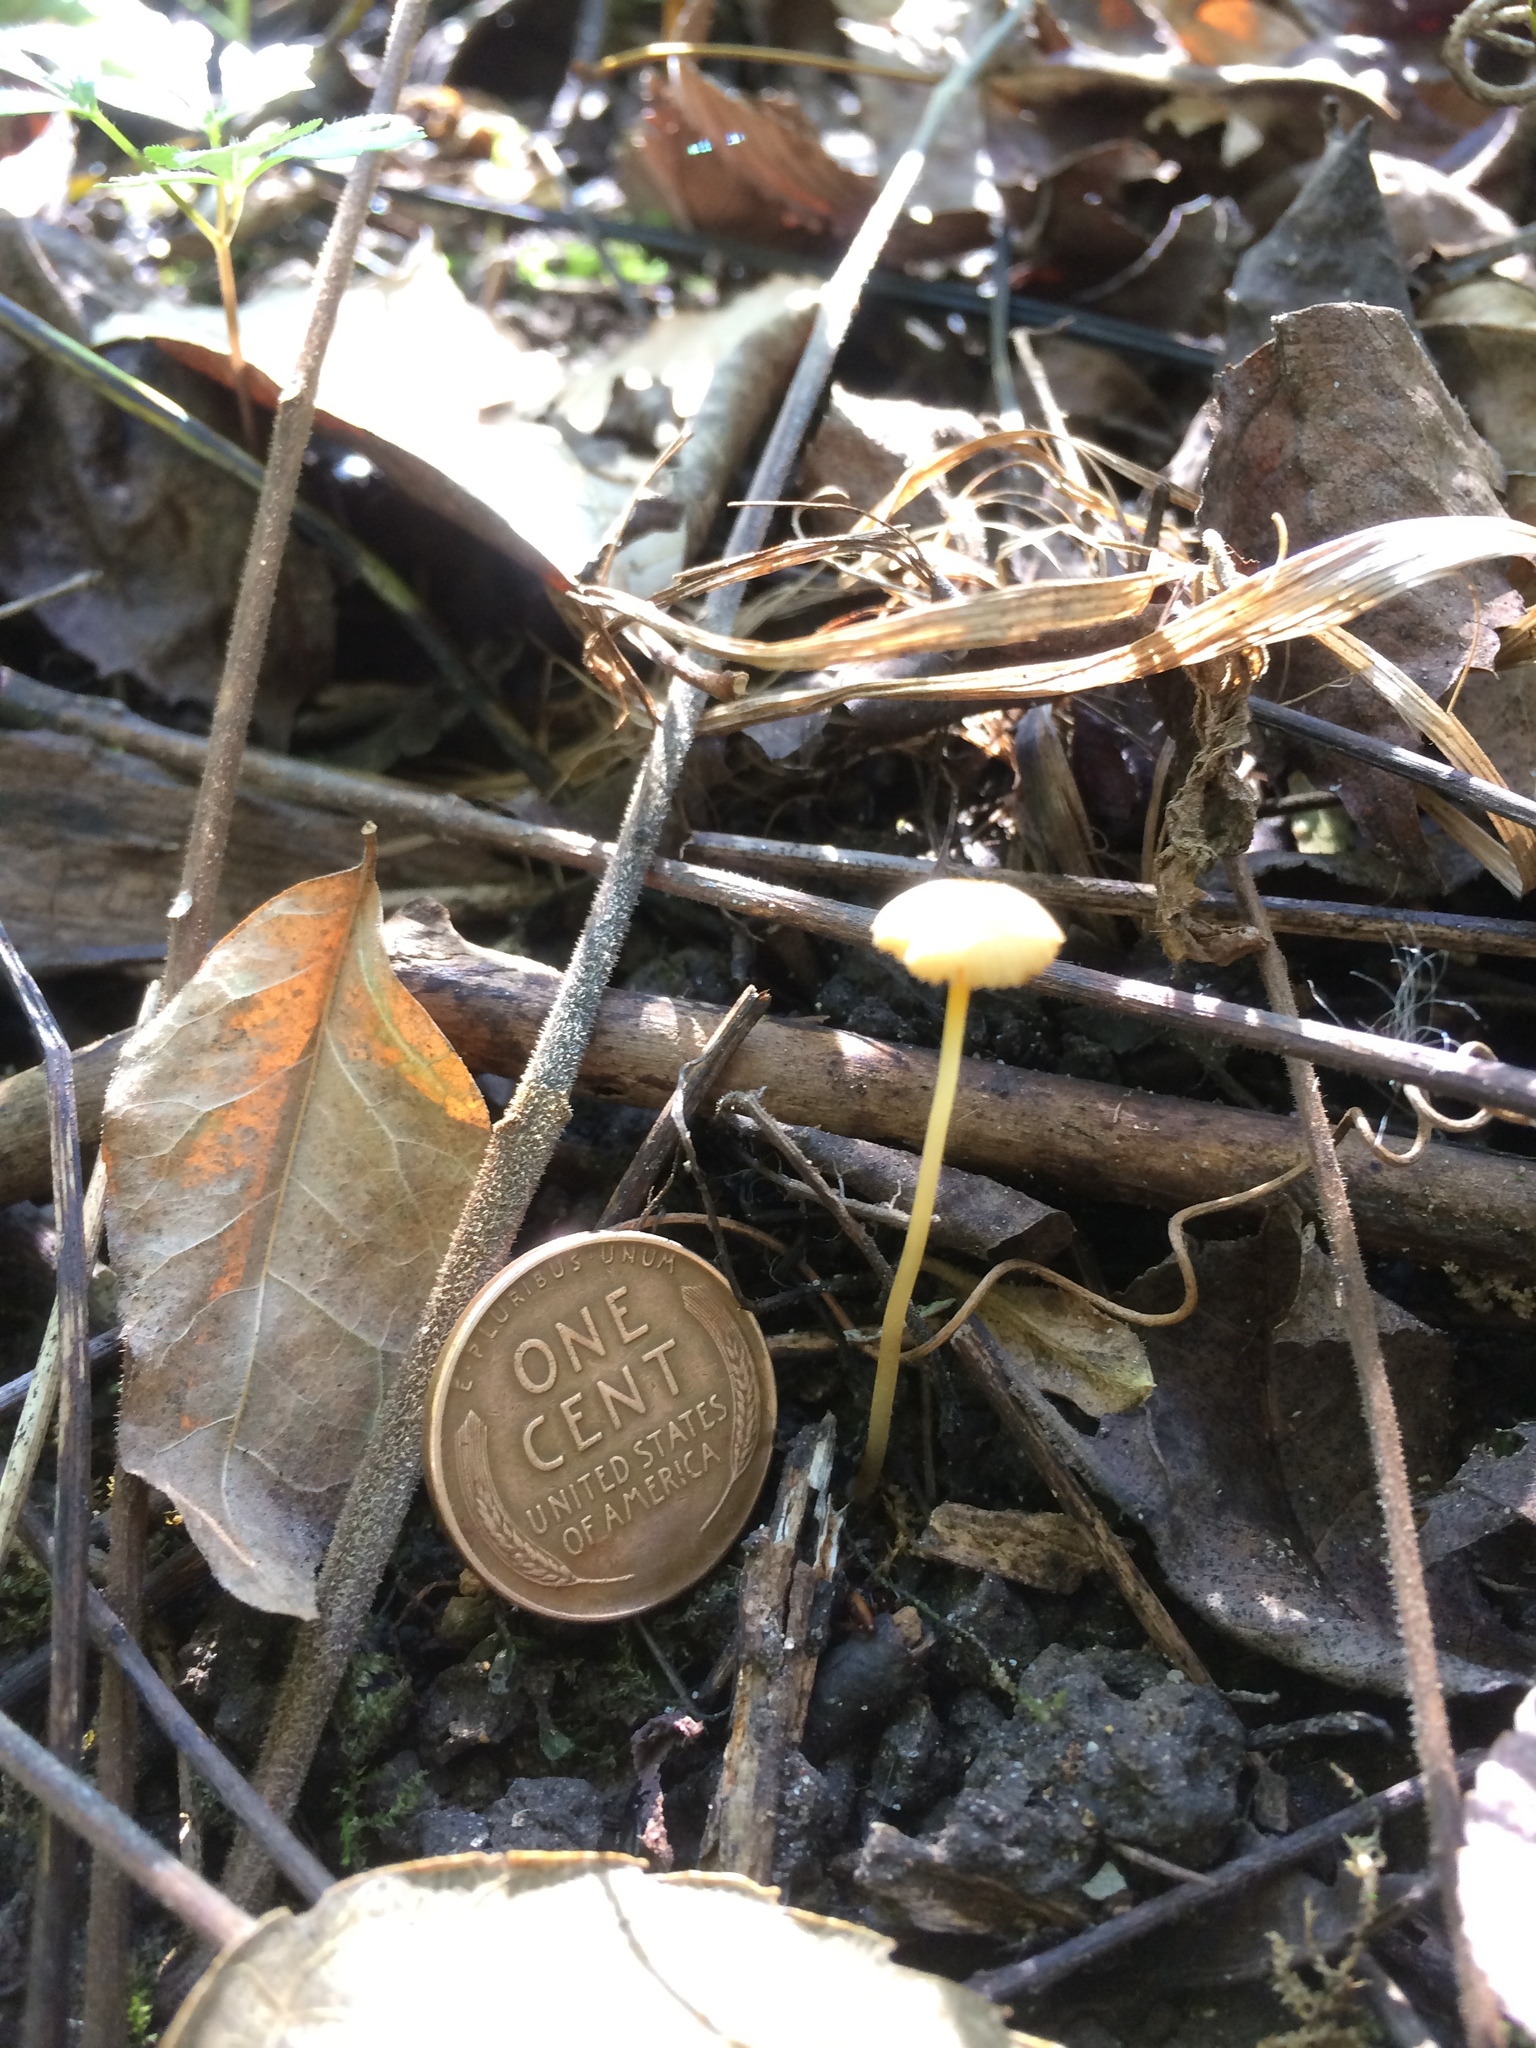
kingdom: Fungi
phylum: Basidiomycota
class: Agaricomycetes
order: Agaricales
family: Mycenaceae
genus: Mycena
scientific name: Mycena crocea
